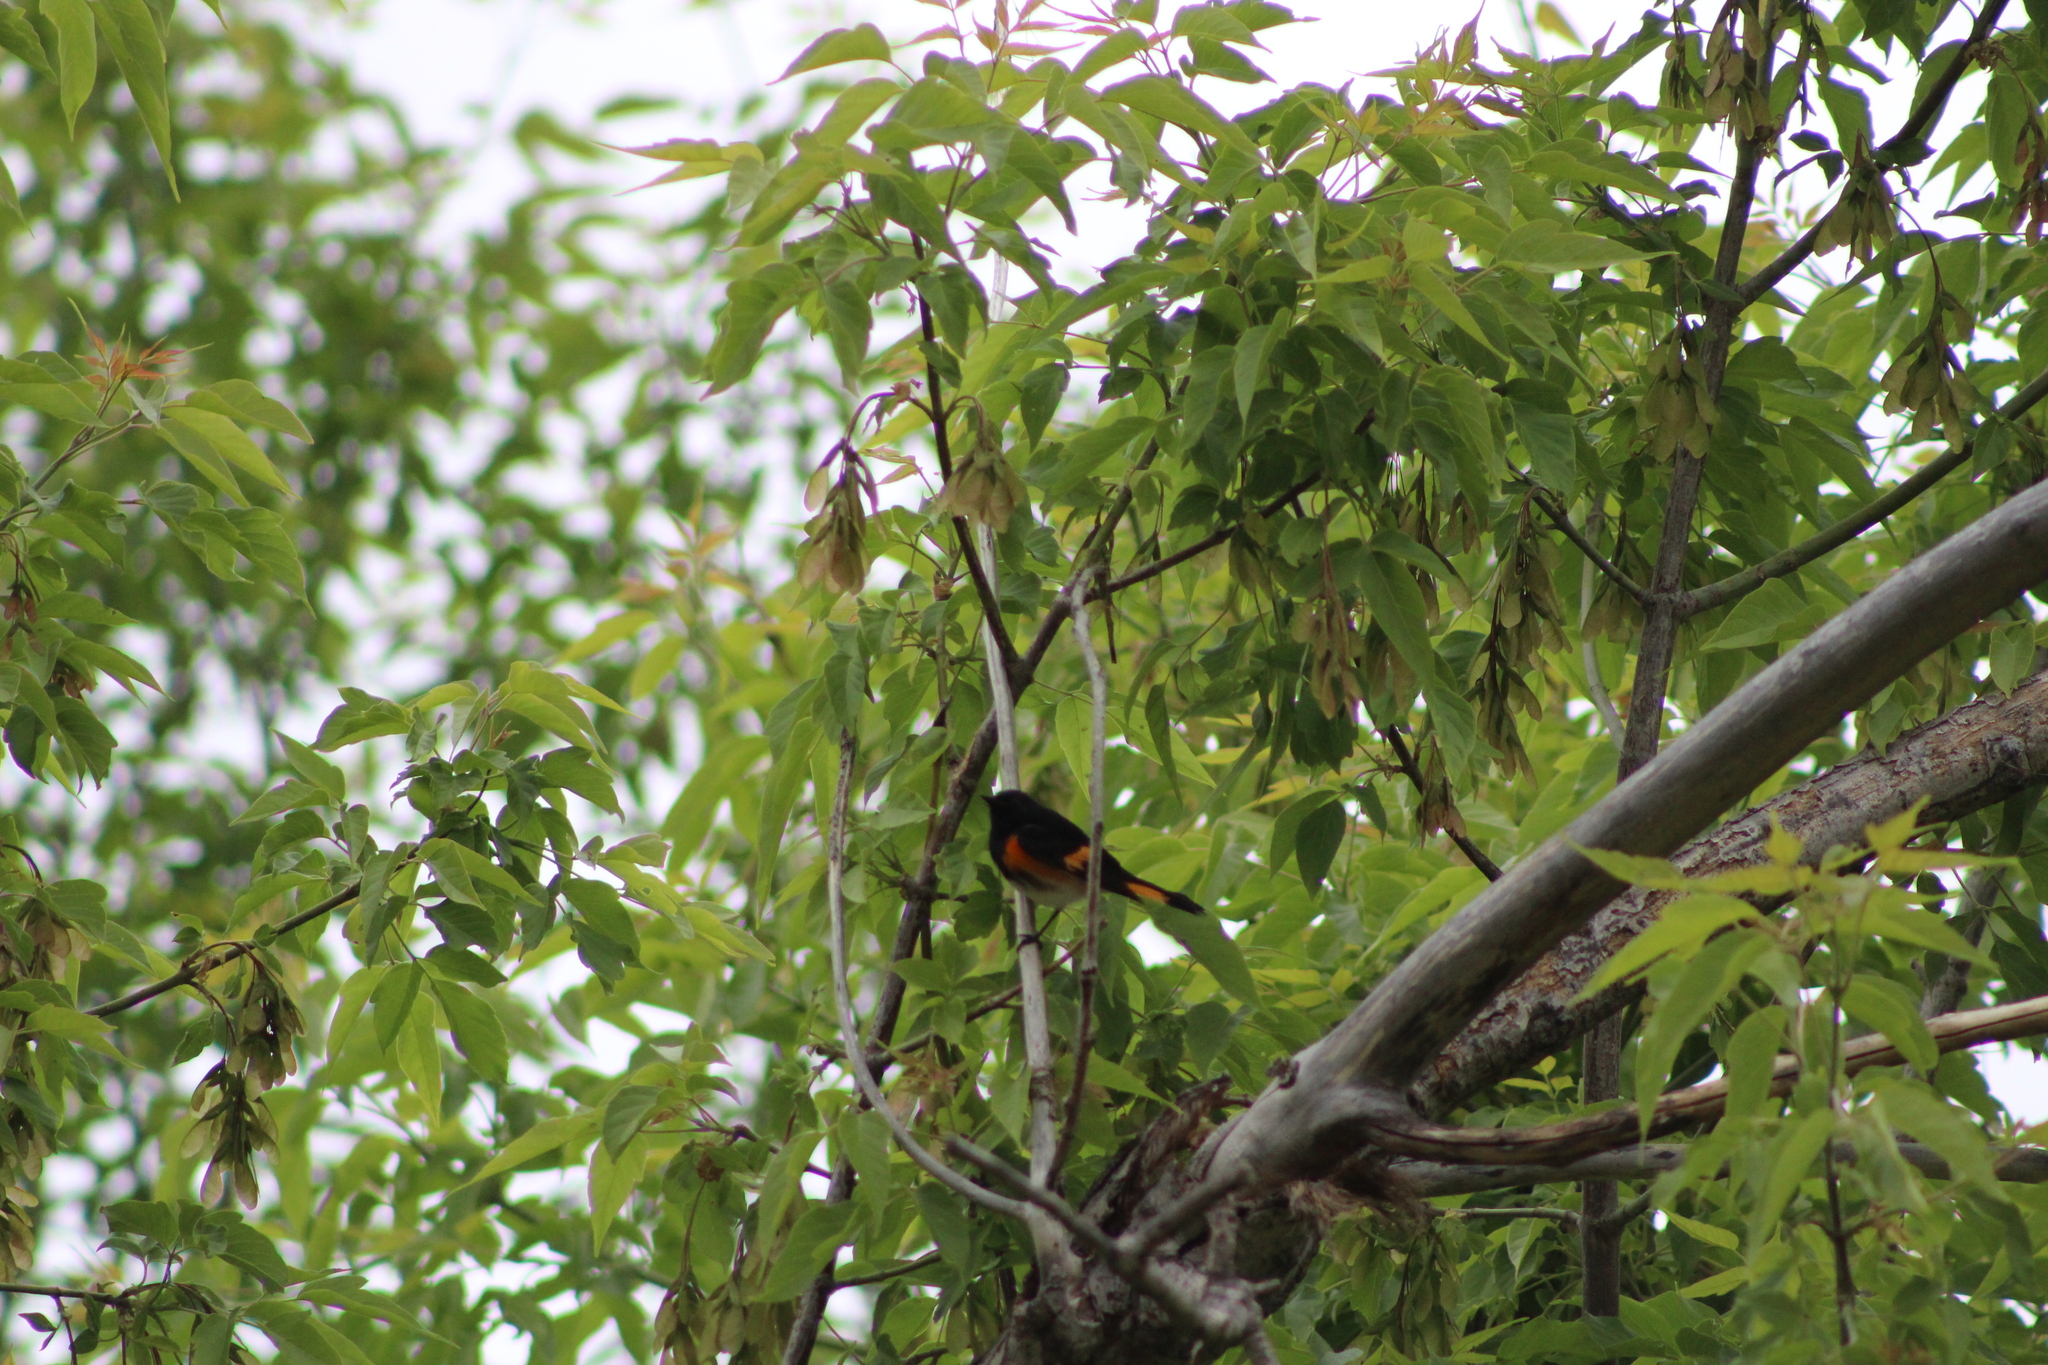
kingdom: Animalia
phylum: Chordata
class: Aves
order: Passeriformes
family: Parulidae
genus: Setophaga
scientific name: Setophaga ruticilla
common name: American redstart
